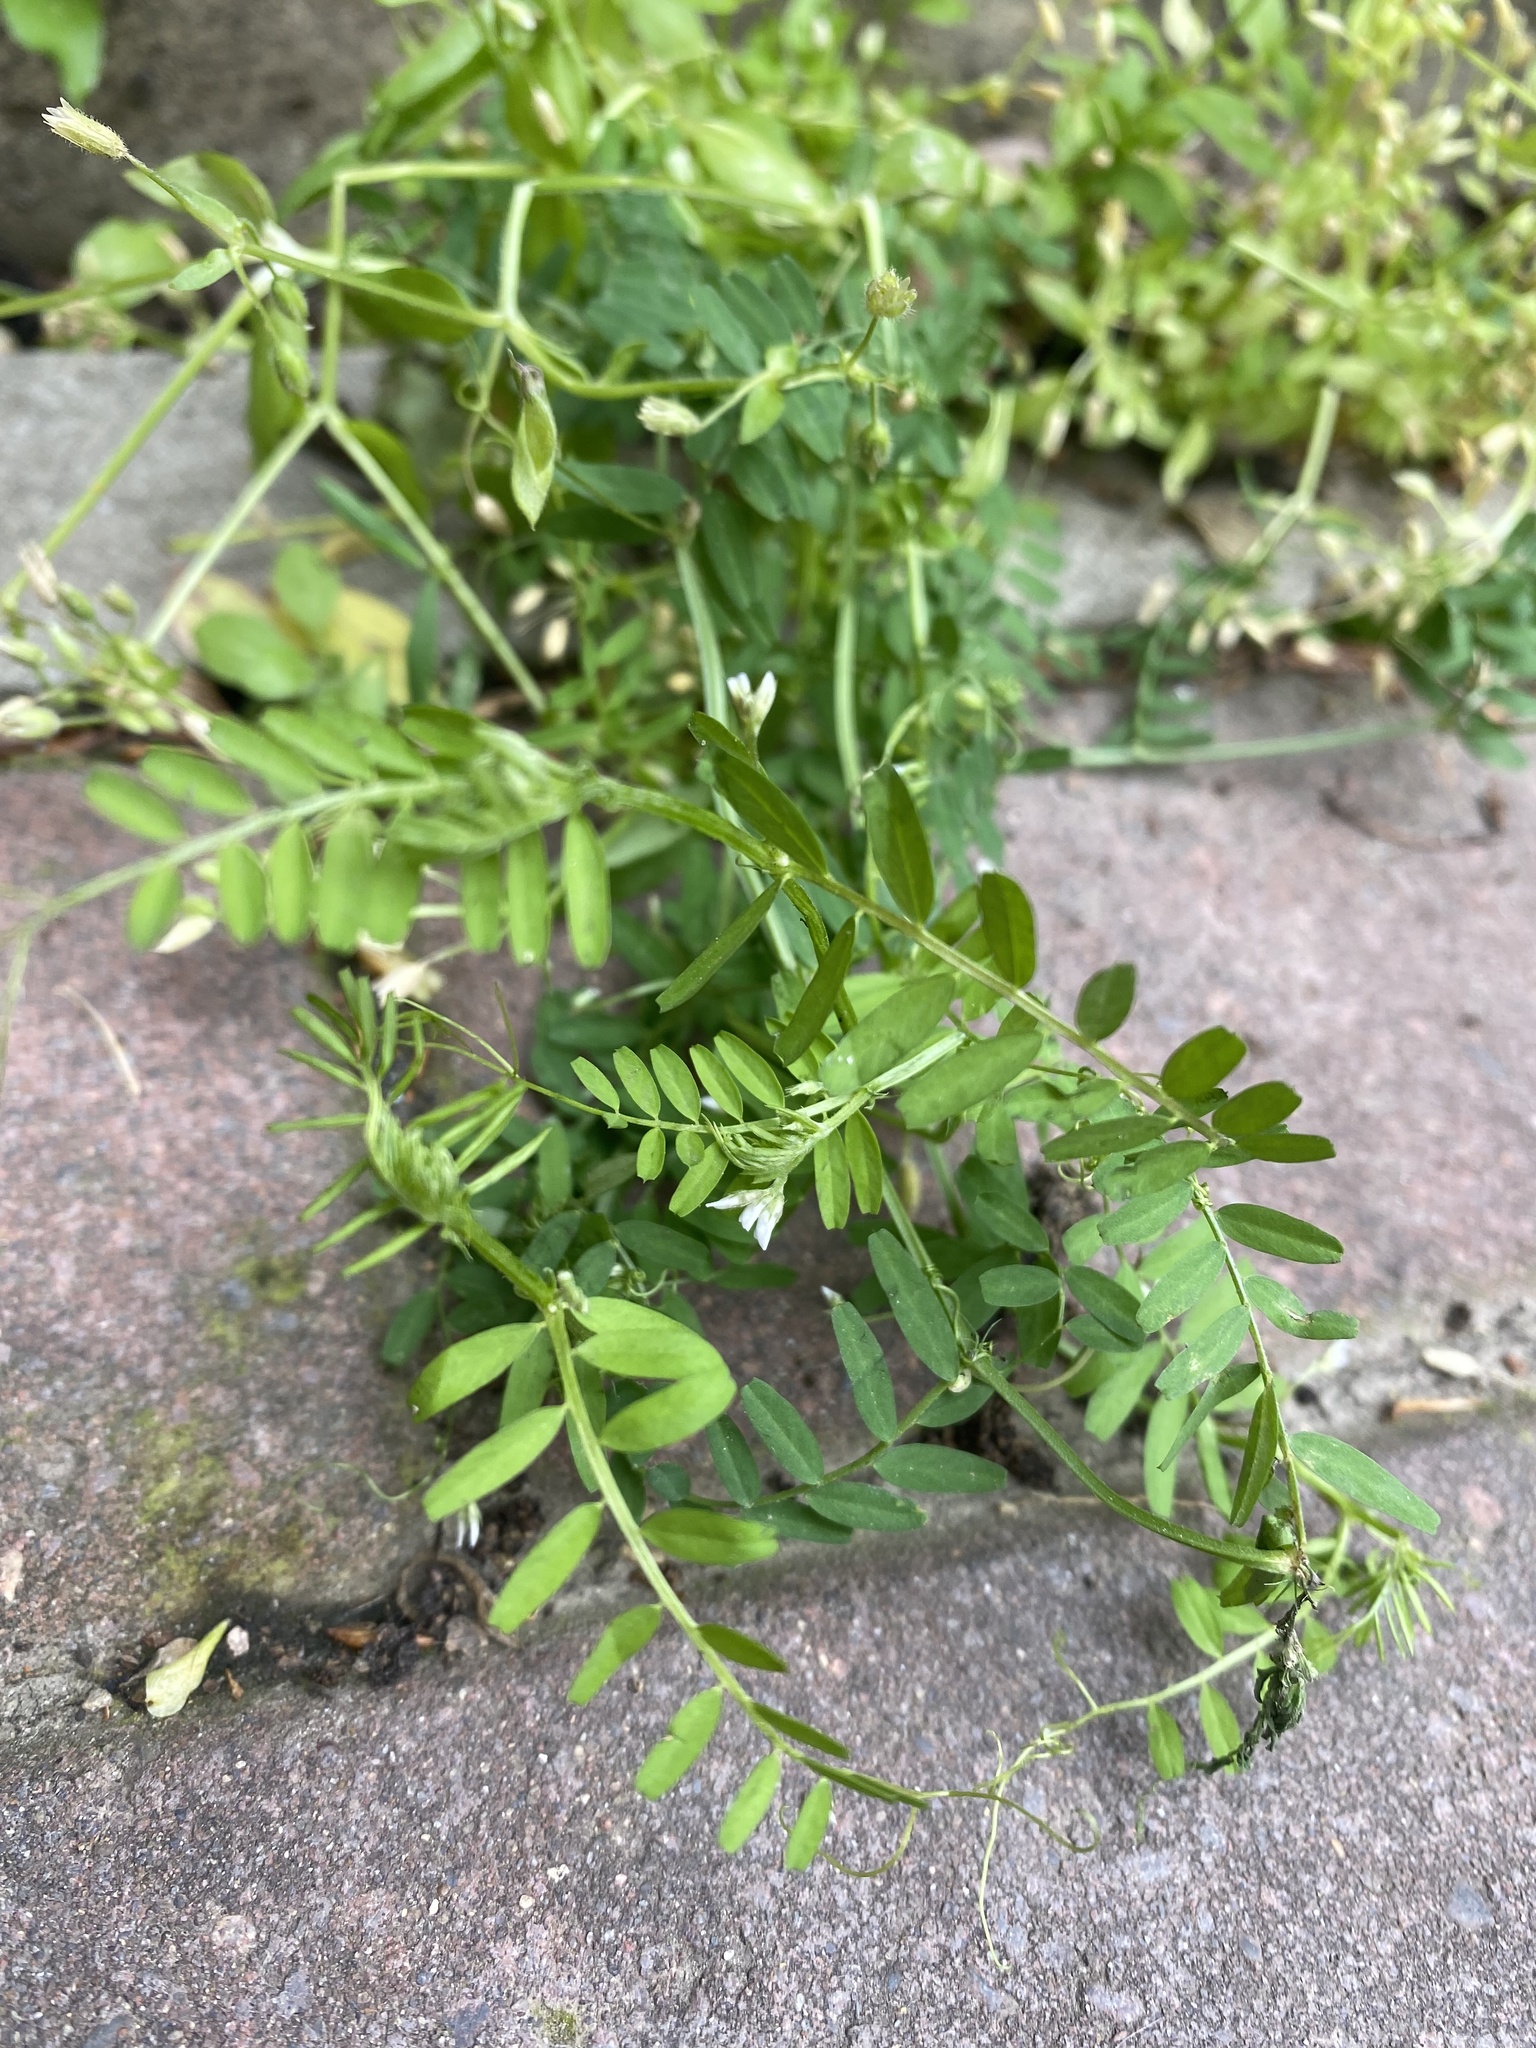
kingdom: Plantae
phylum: Tracheophyta
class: Magnoliopsida
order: Fabales
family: Fabaceae
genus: Vicia
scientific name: Vicia hirsuta
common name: Tiny vetch
